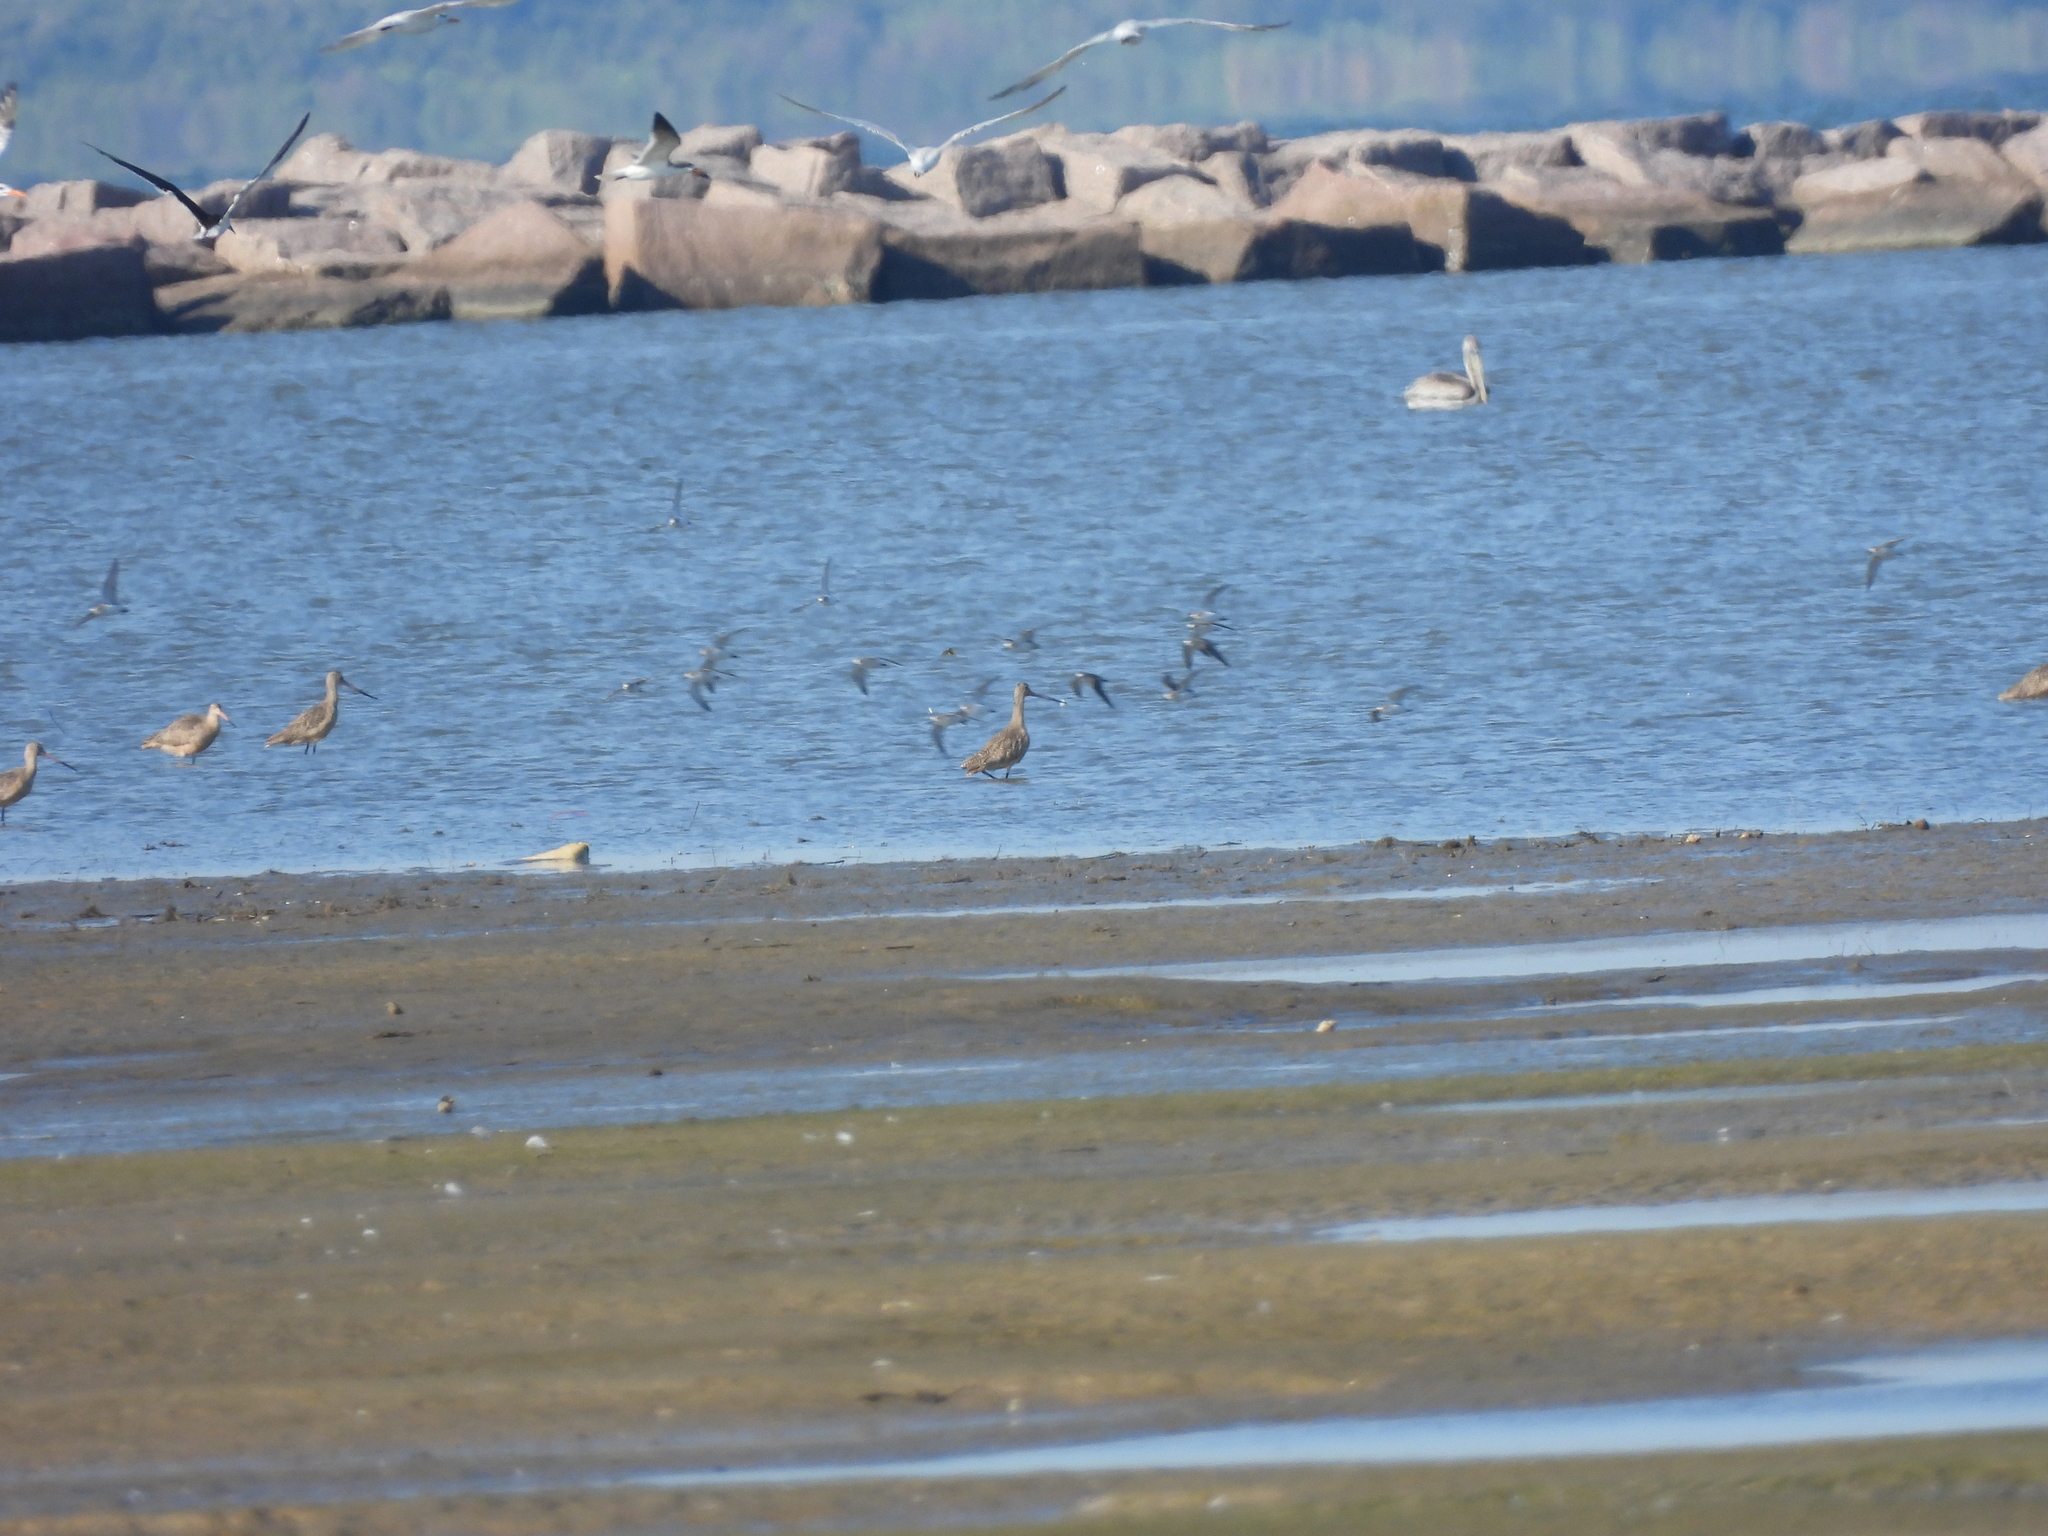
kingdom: Animalia
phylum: Chordata
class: Aves
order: Charadriiformes
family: Scolopacidae
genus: Limosa
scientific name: Limosa fedoa
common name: Marbled godwit
